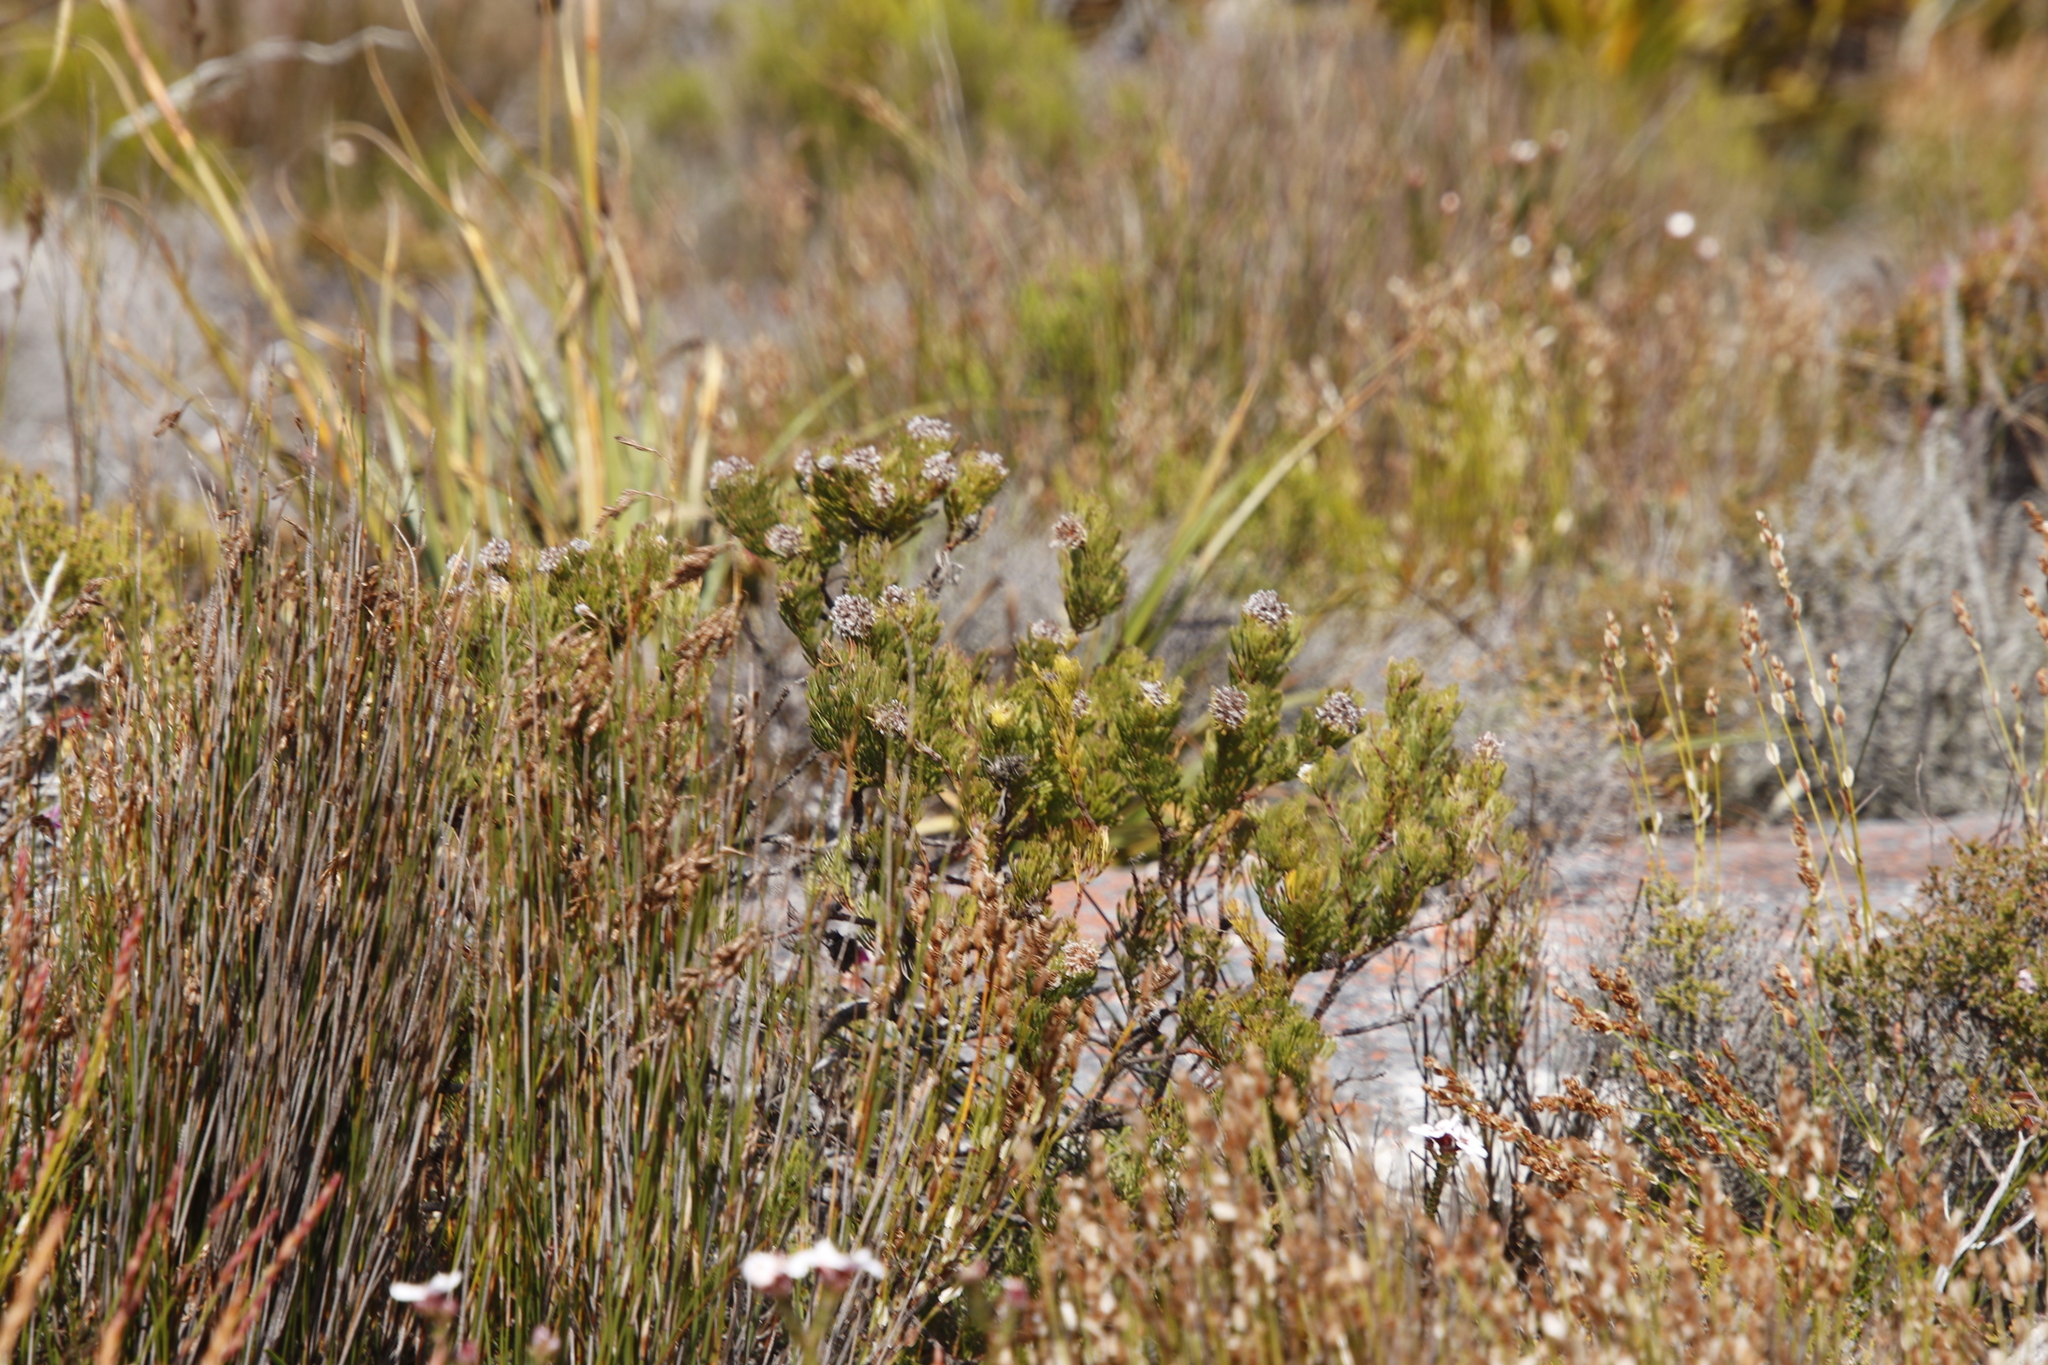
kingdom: Plantae
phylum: Tracheophyta
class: Magnoliopsida
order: Proteales
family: Proteaceae
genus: Serruria
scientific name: Serruria villosa
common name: Golden spiderhead
